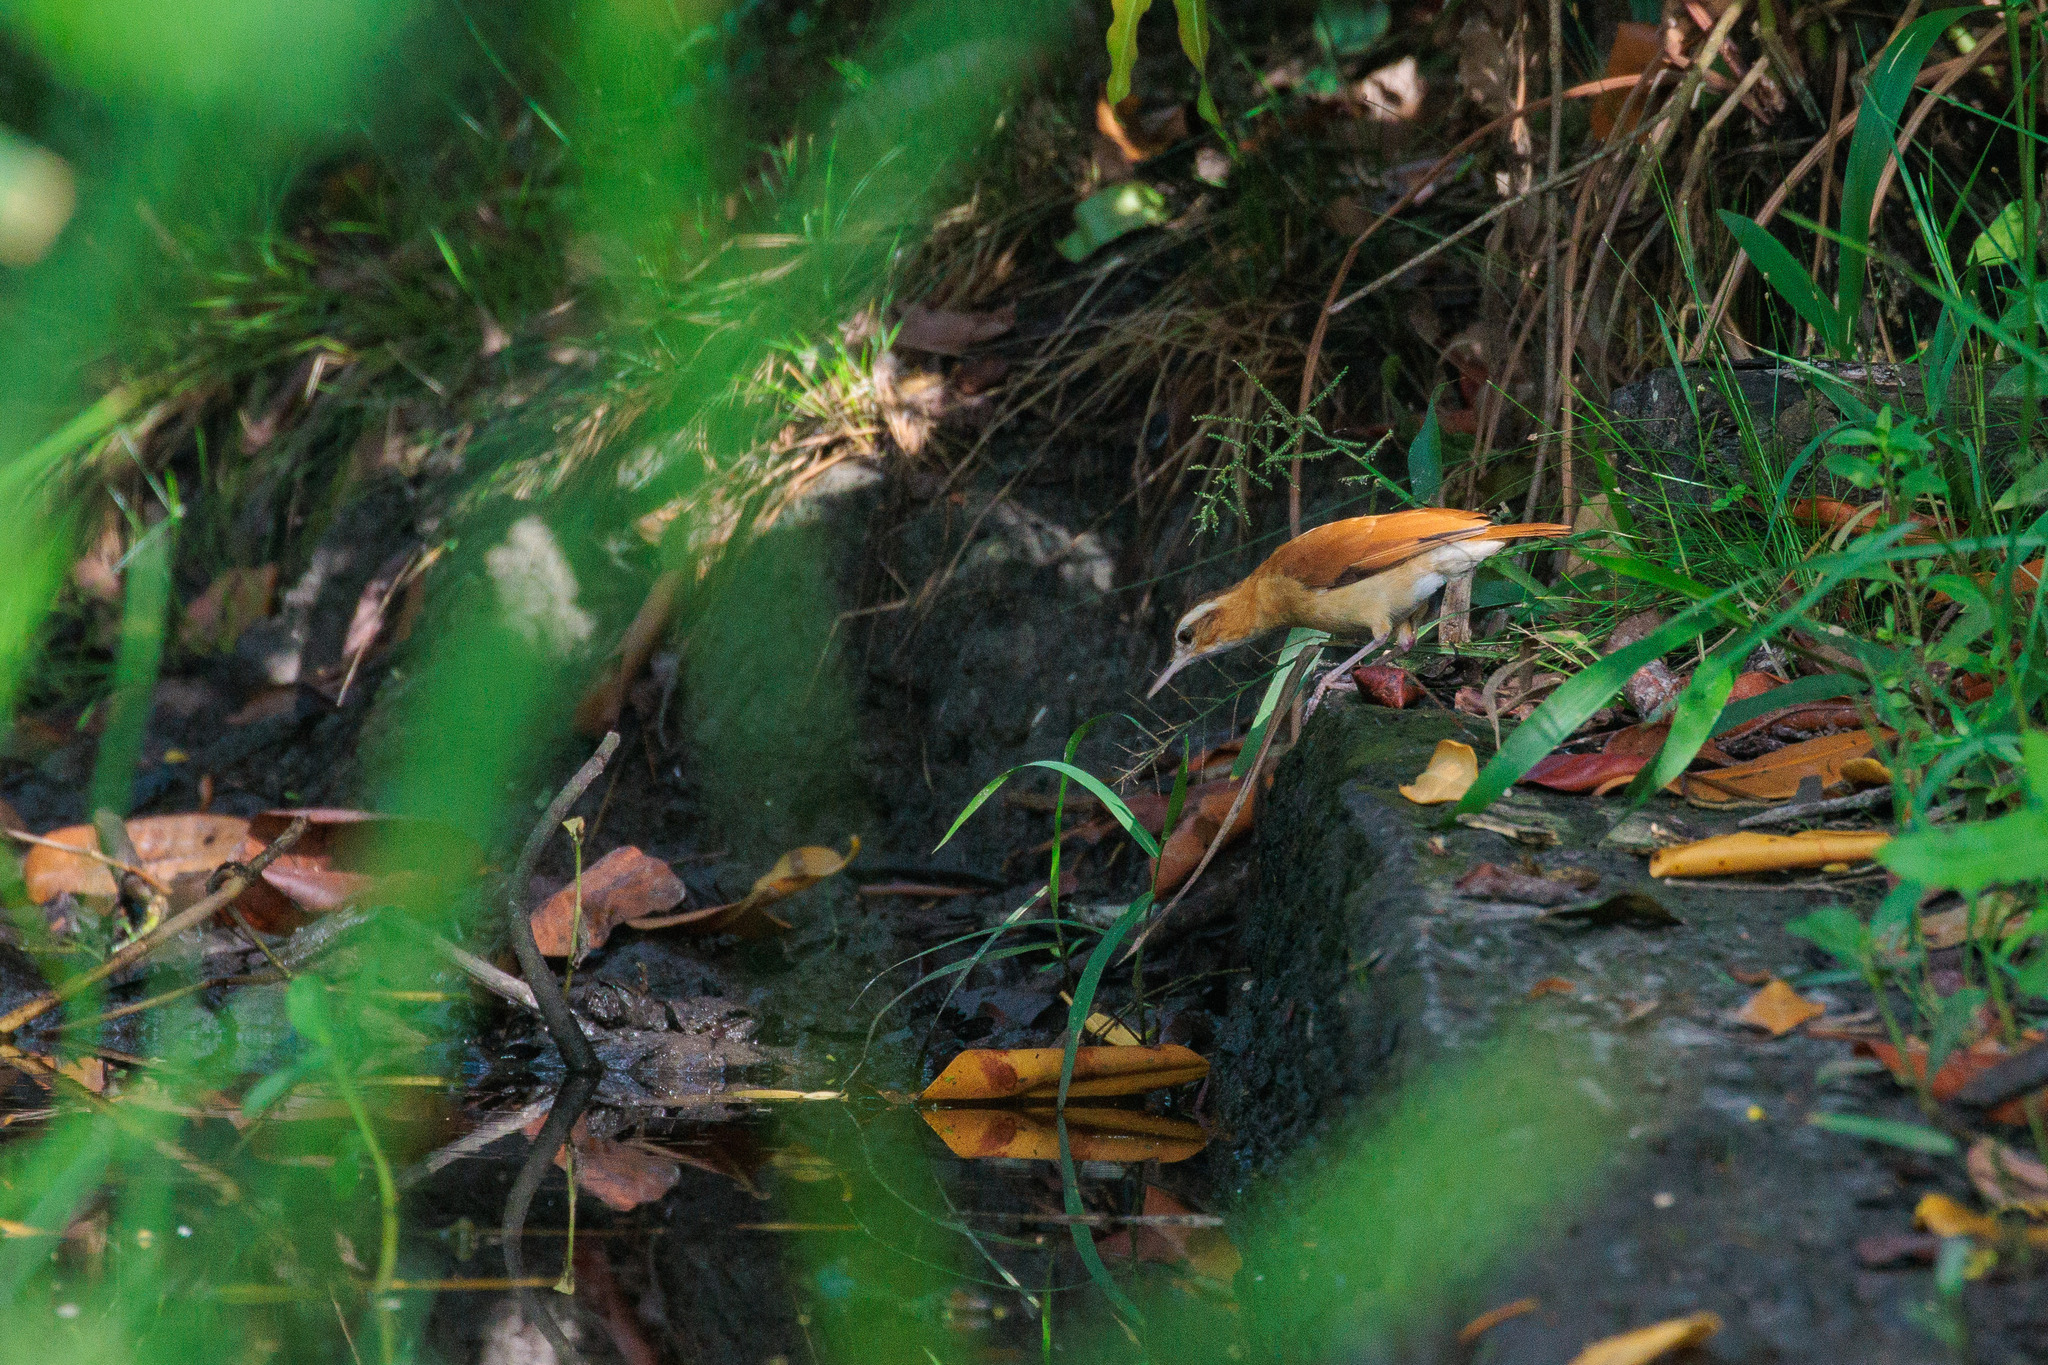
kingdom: Animalia
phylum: Chordata
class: Aves
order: Passeriformes
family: Furnariidae
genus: Furnarius
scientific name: Furnarius leucopus
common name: Pale-legged hornero
